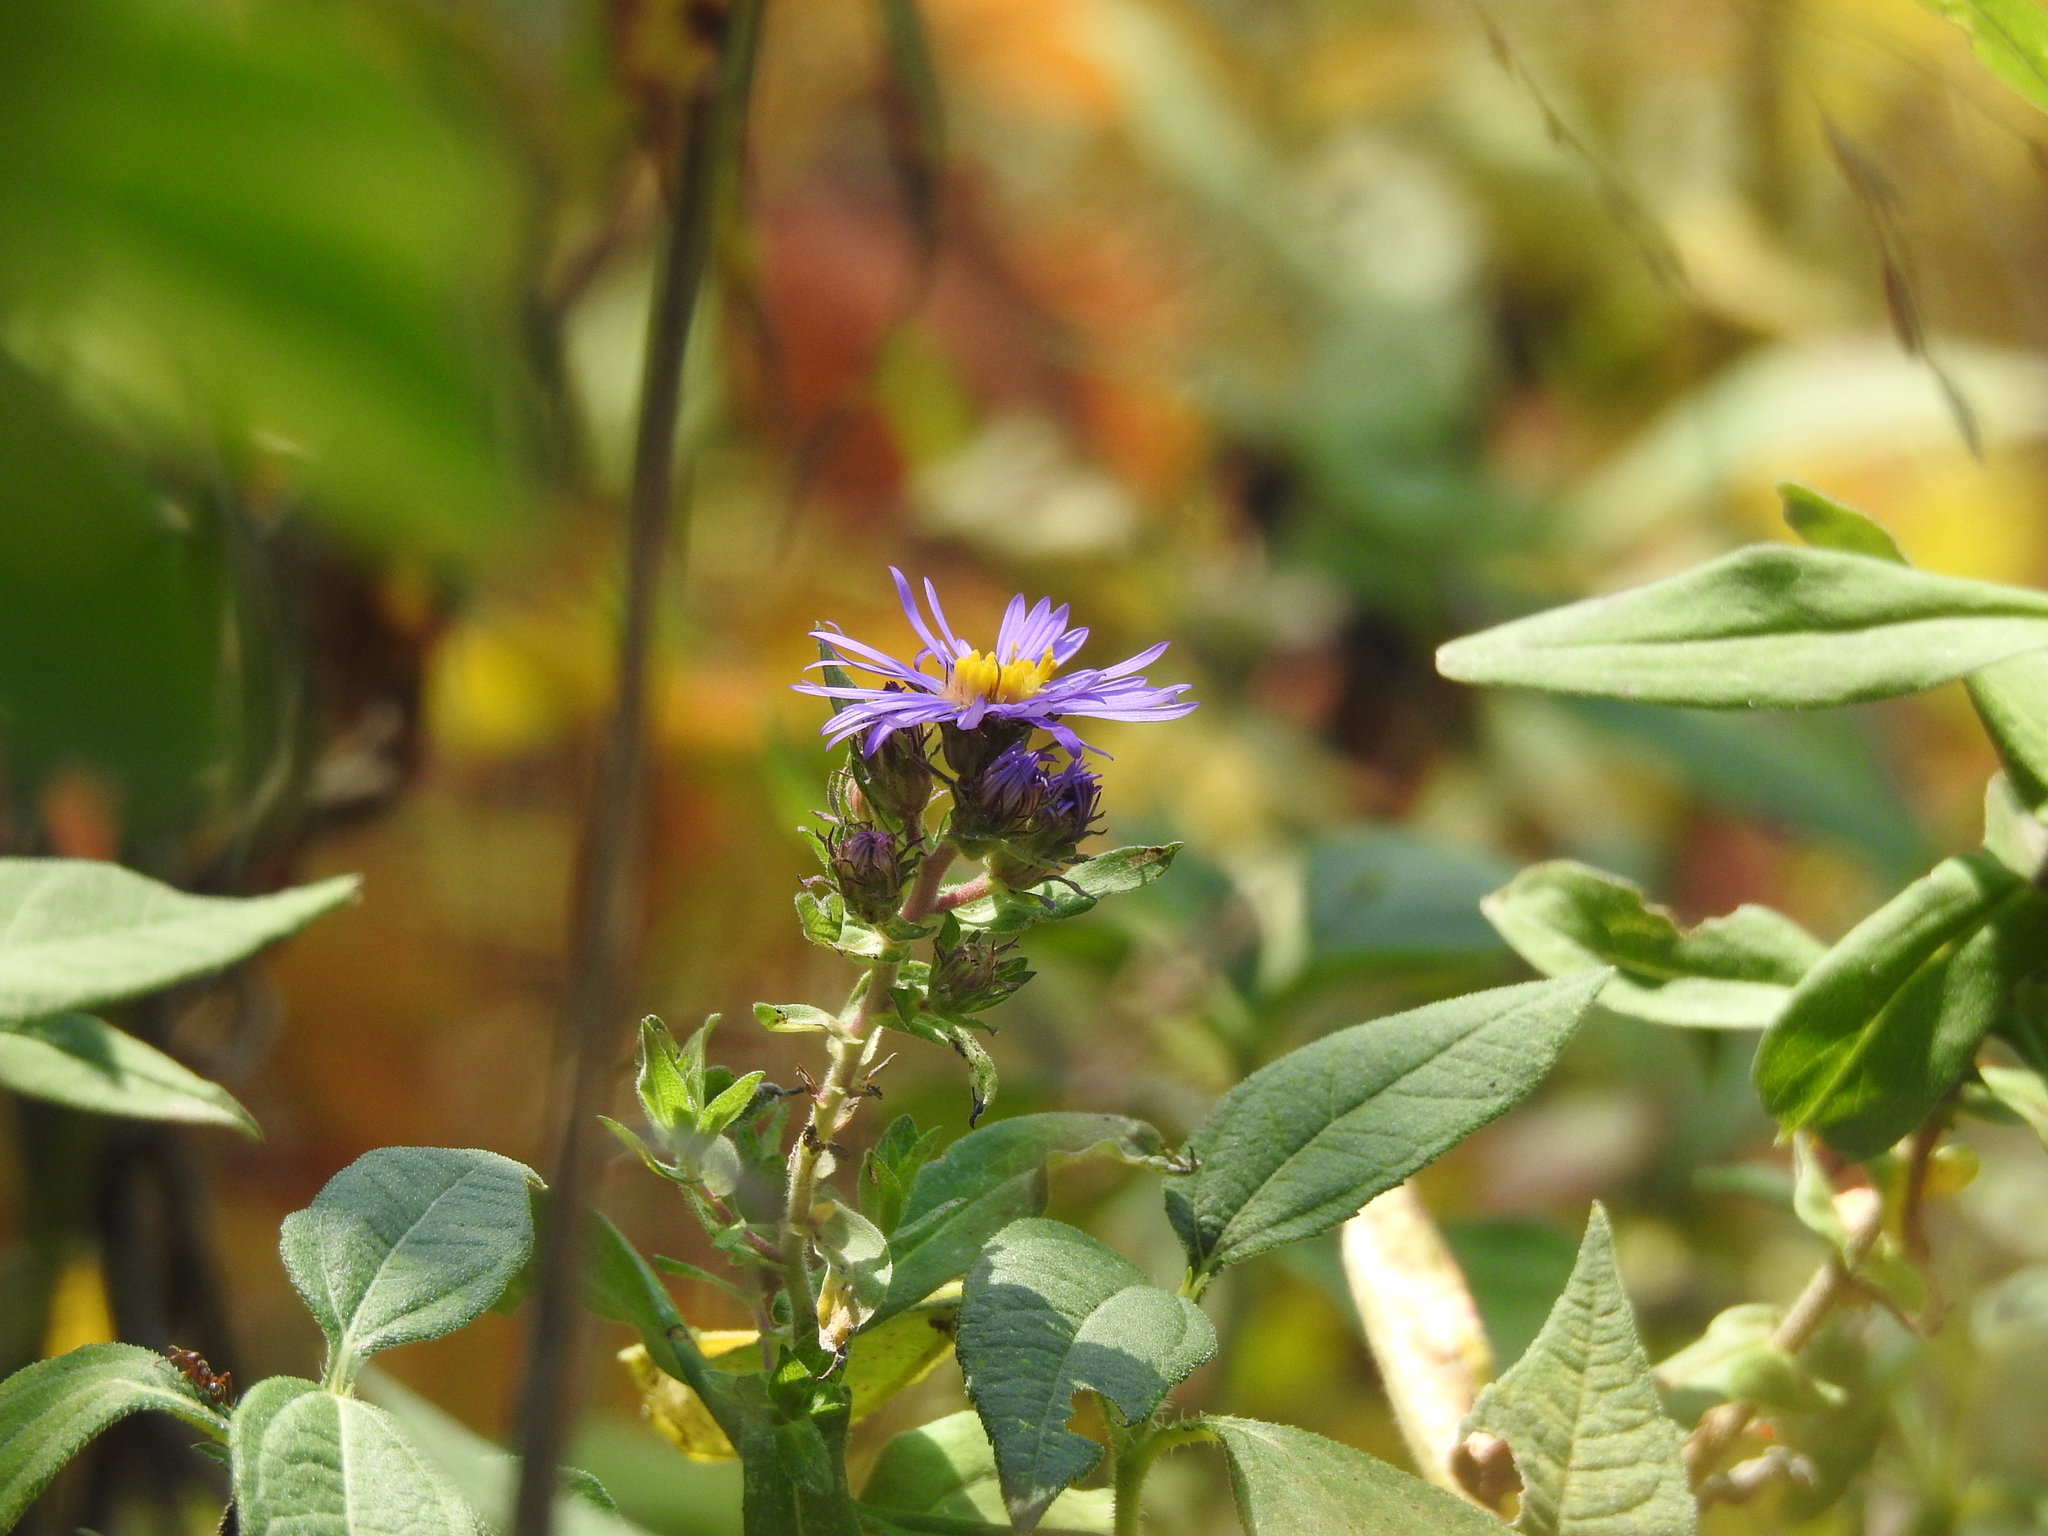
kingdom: Plantae
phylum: Tracheophyta
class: Magnoliopsida
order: Asterales
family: Asteraceae
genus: Symphyotrichum
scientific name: Symphyotrichum novae-angliae
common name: Michaelmas daisy
